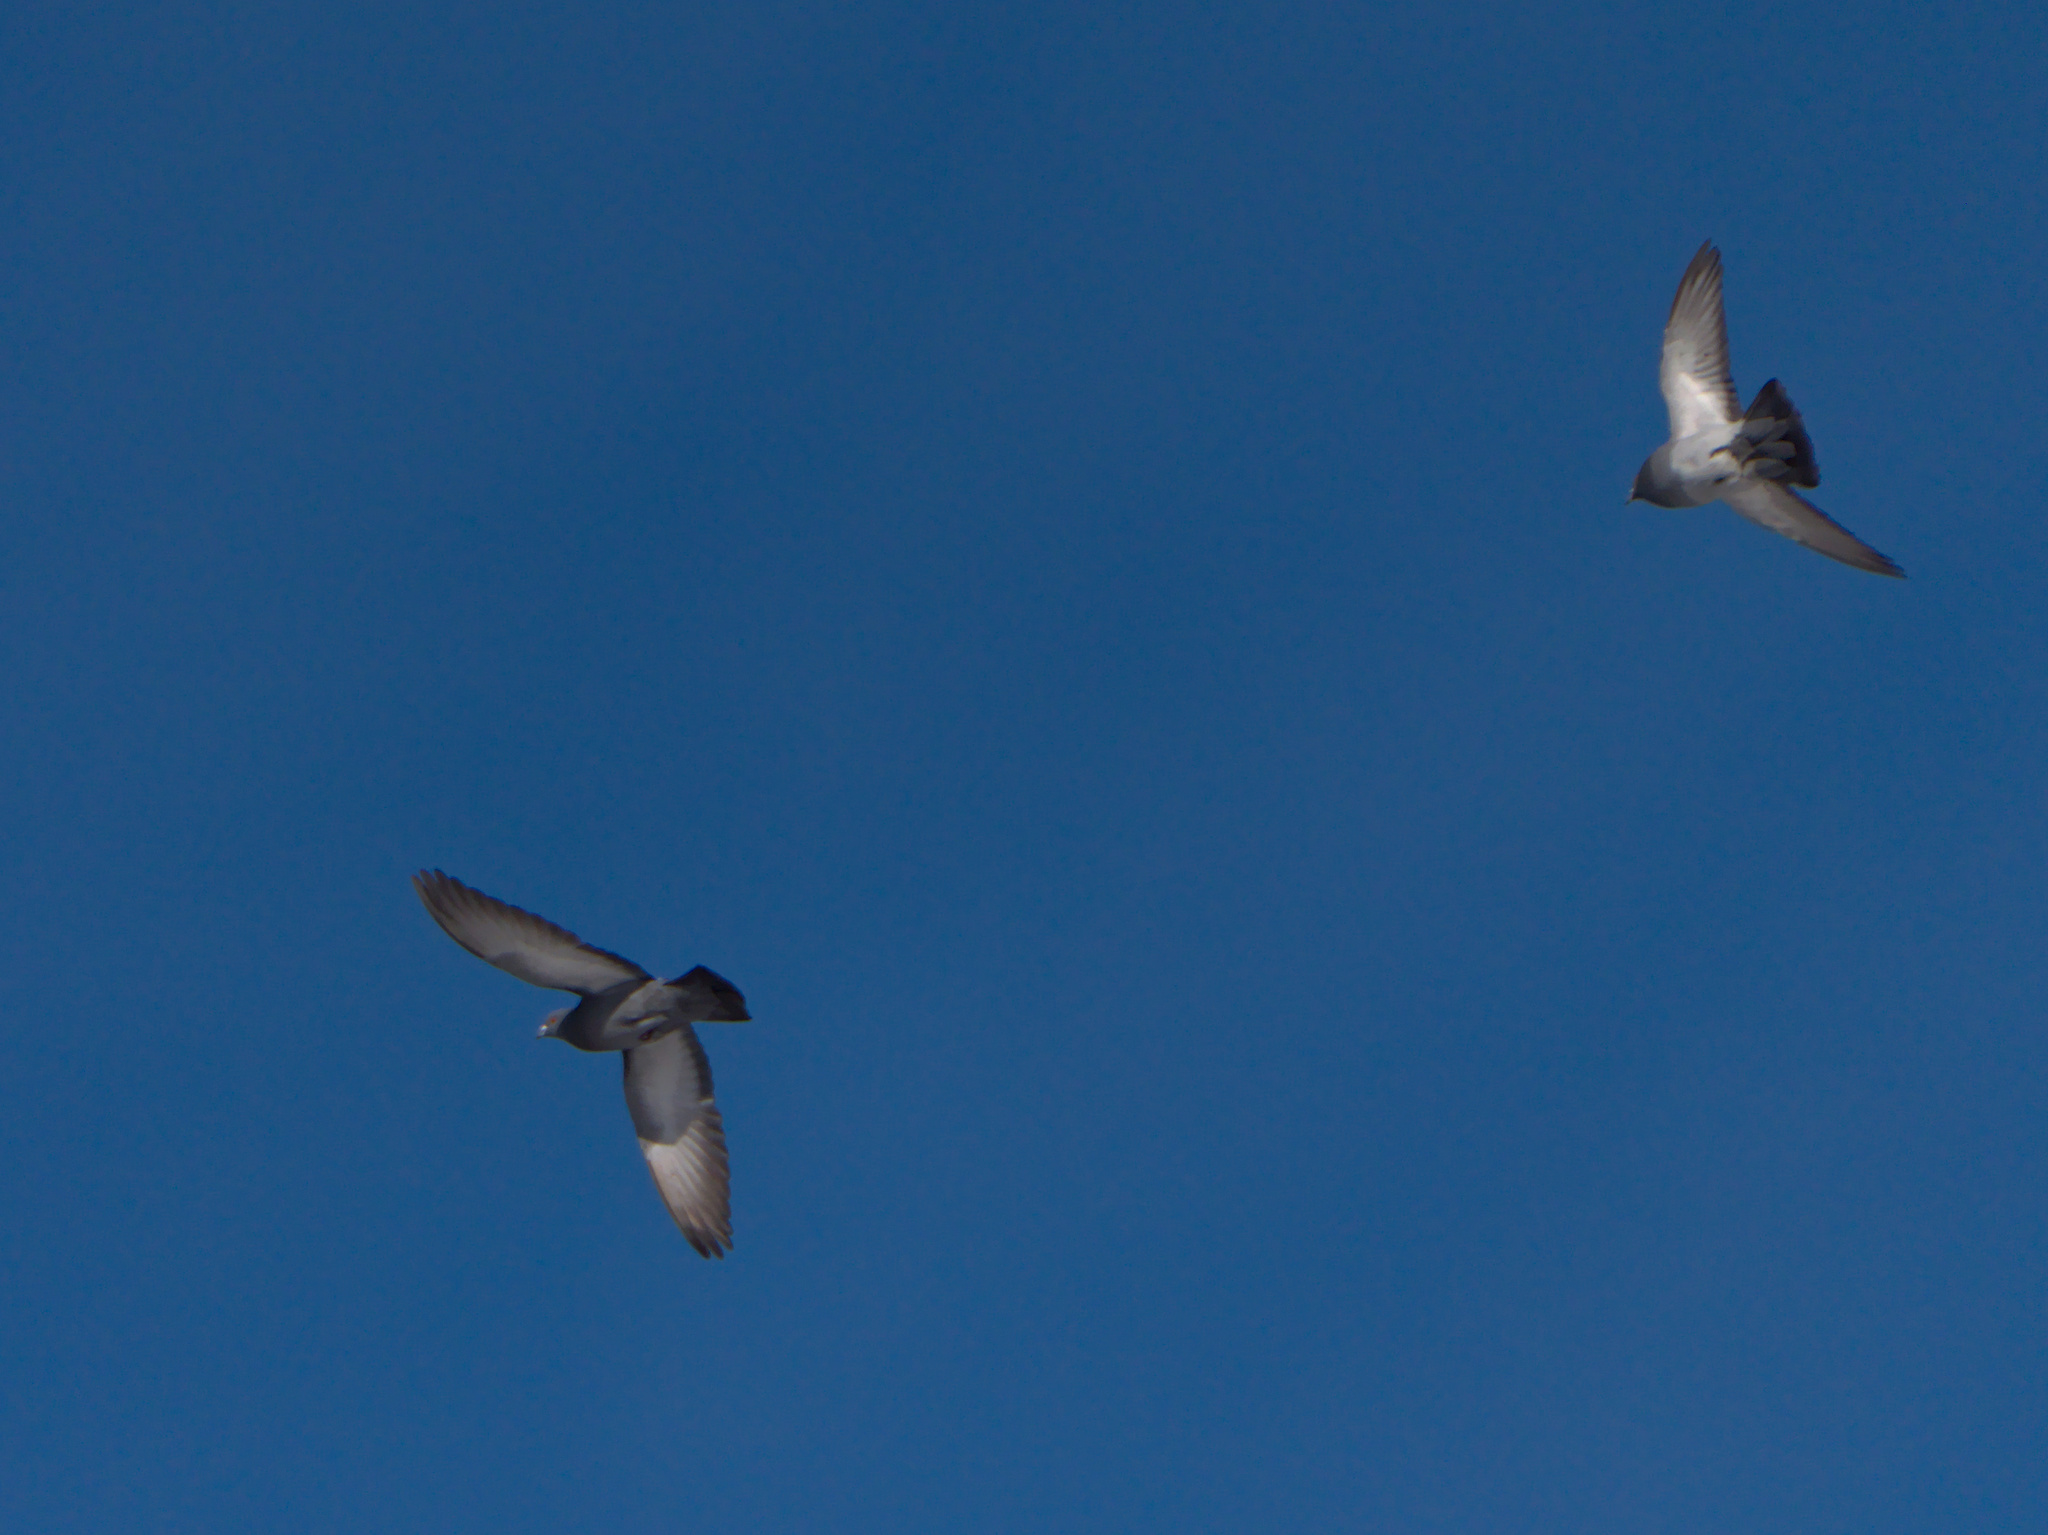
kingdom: Animalia
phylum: Chordata
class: Aves
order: Columbiformes
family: Columbidae
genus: Columba
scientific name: Columba livia
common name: Rock pigeon
